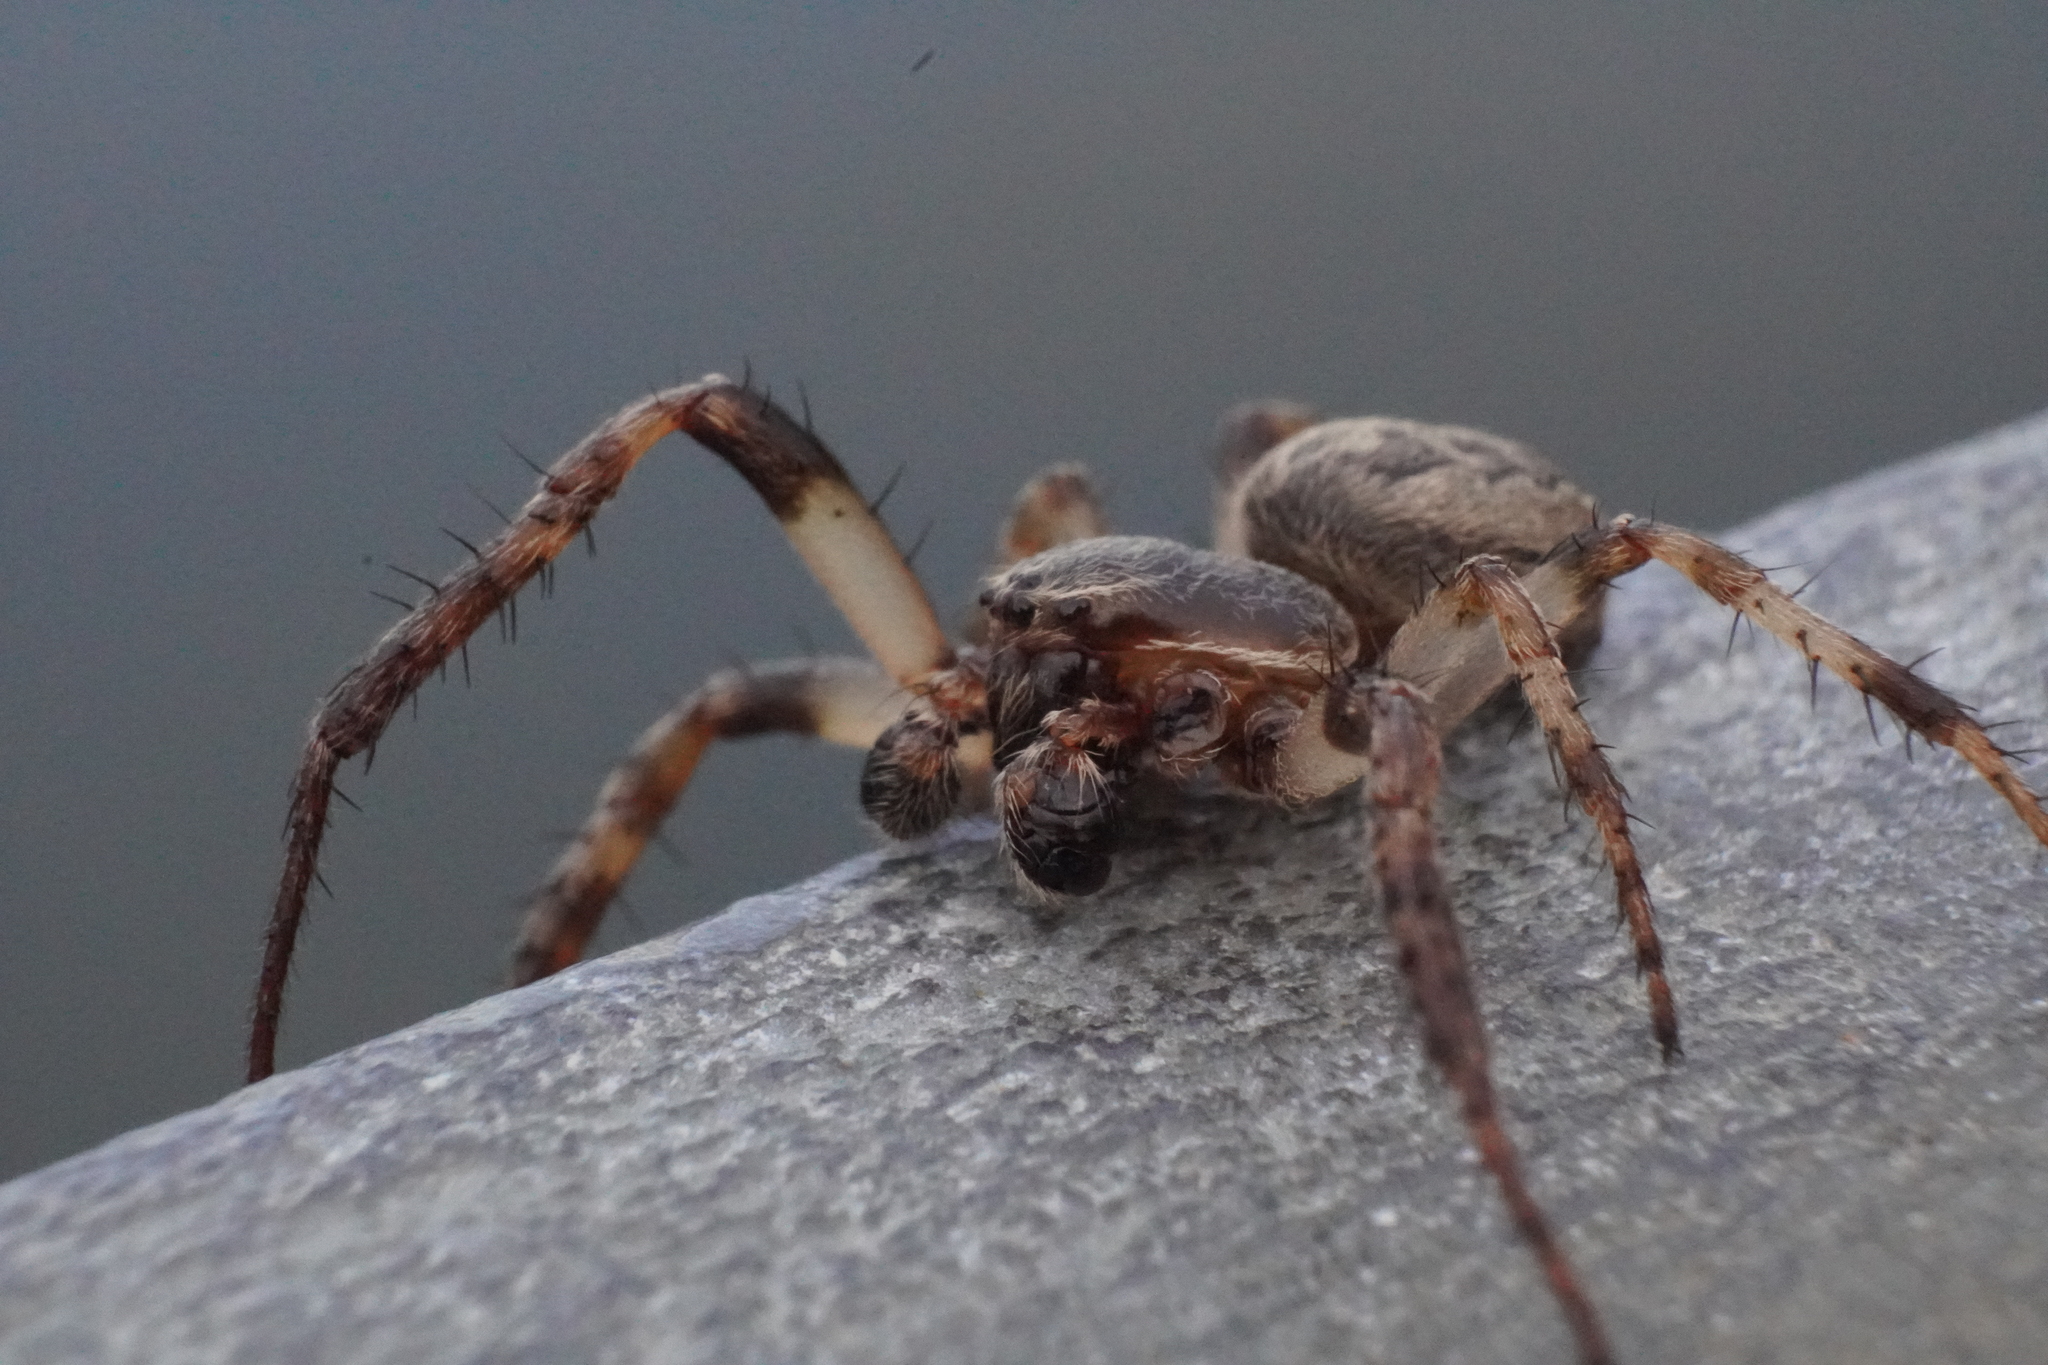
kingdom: Animalia
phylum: Arthropoda
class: Arachnida
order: Araneae
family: Araneidae
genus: Larinioides
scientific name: Larinioides cornutus
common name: Furrow orbweaver
